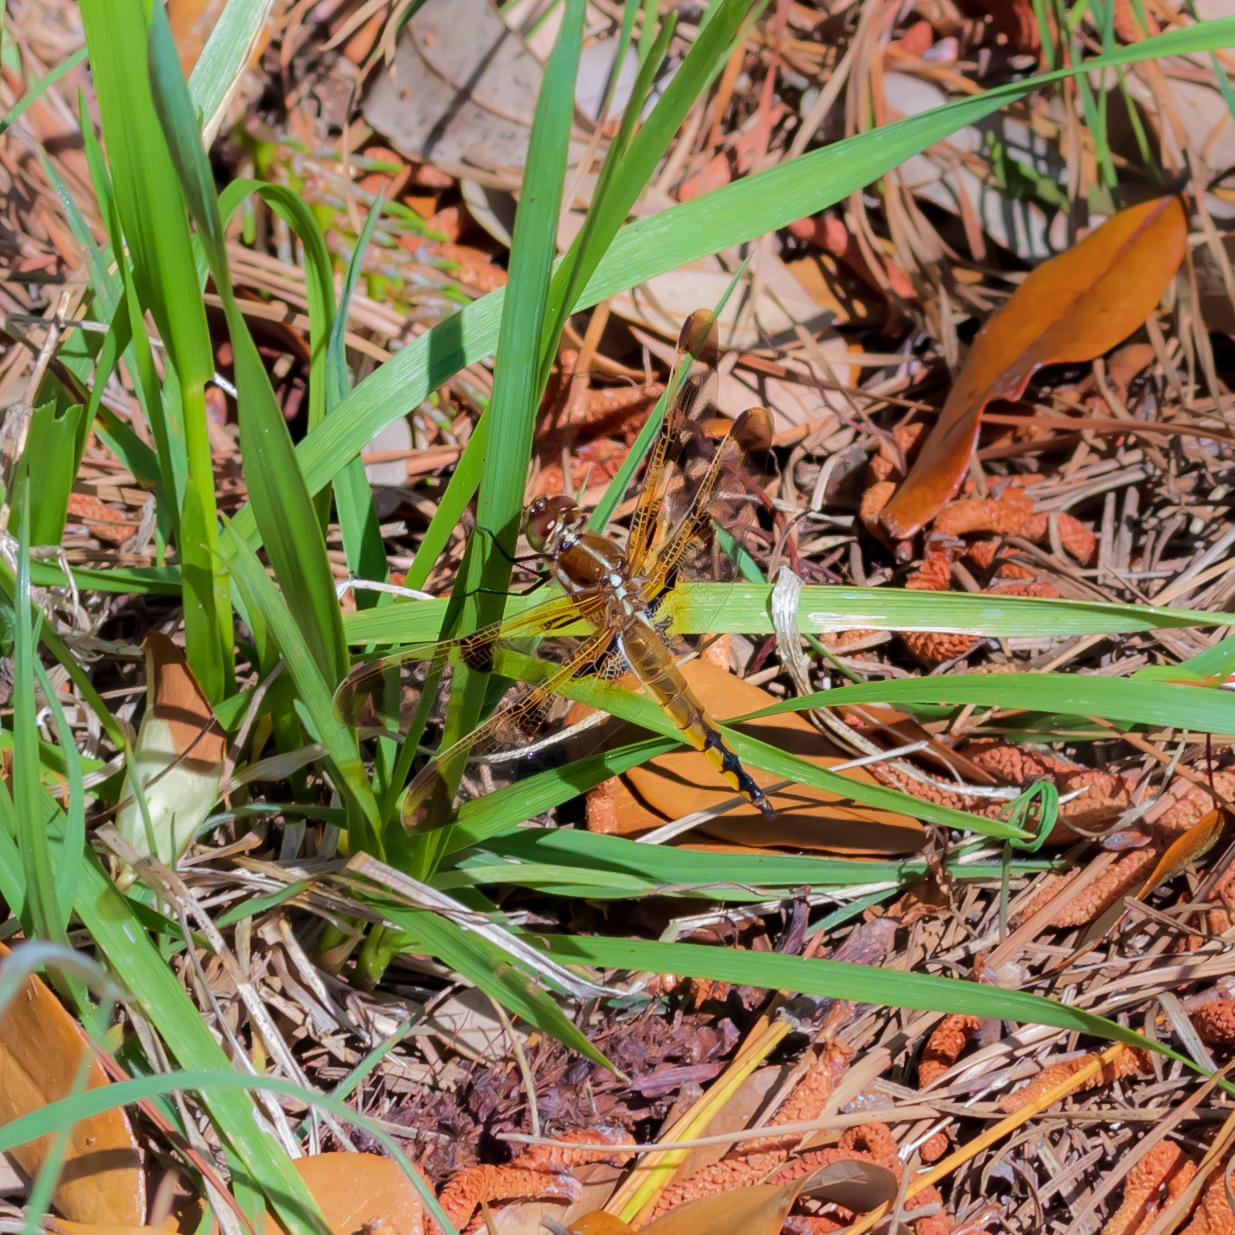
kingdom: Animalia
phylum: Arthropoda
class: Insecta
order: Odonata
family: Libellulidae
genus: Libellula
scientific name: Libellula semifasciata
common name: Painted skimmer
